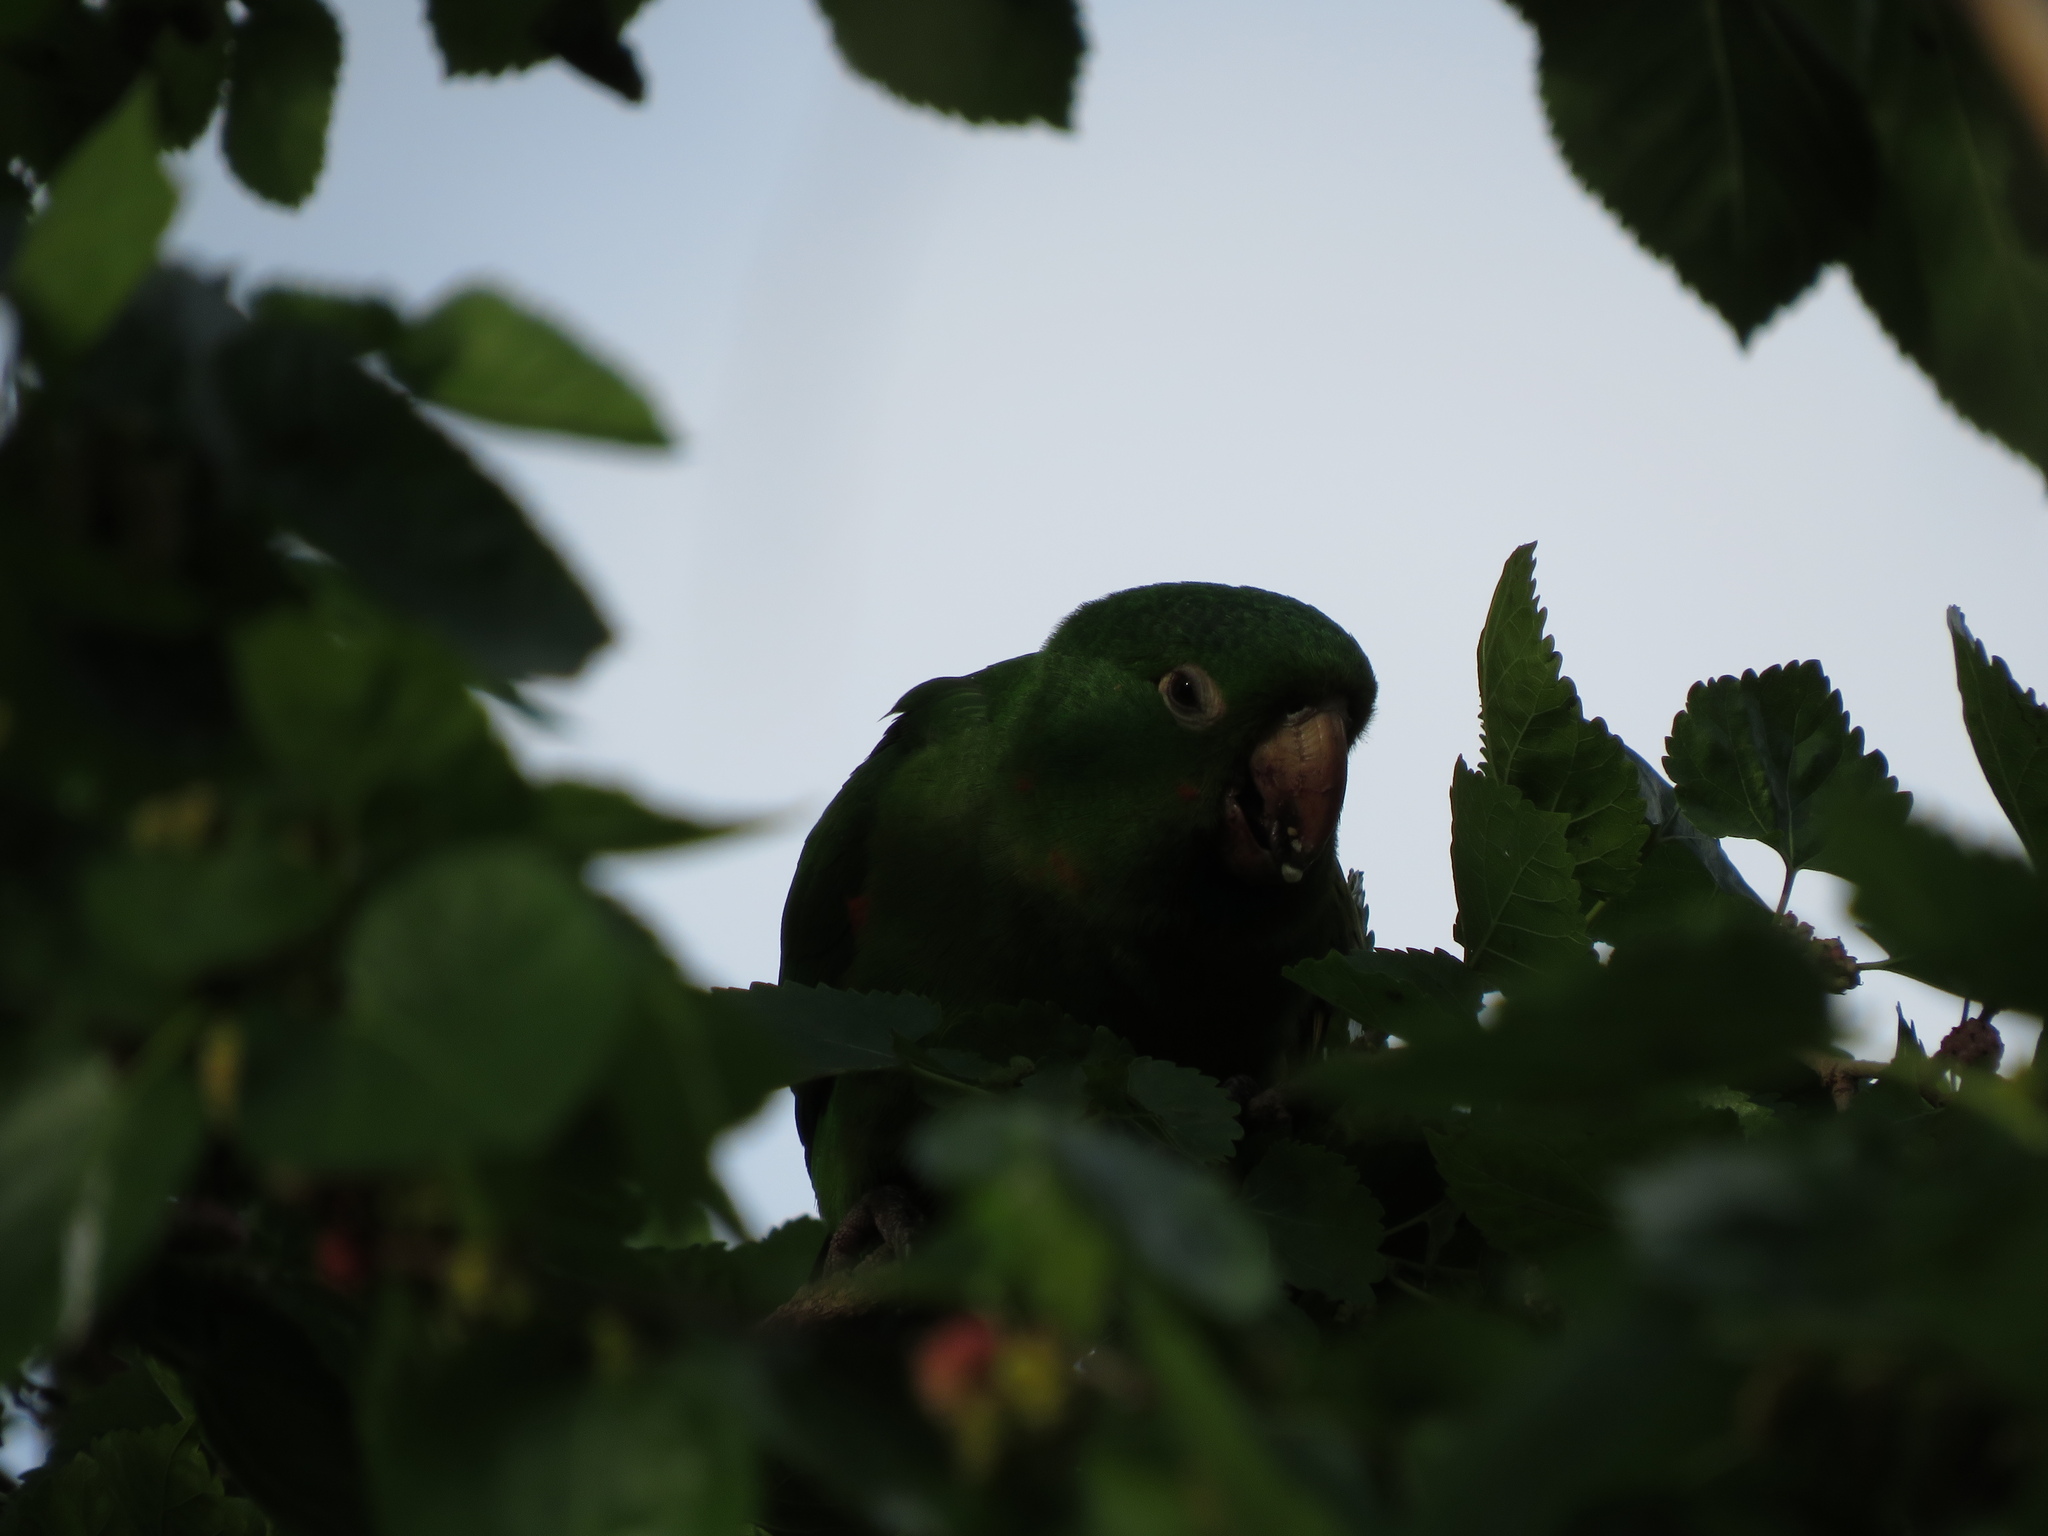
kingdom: Animalia
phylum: Chordata
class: Aves
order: Psittaciformes
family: Psittacidae
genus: Aratinga
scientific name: Aratinga leucophthalma
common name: White-eyed parakeet
